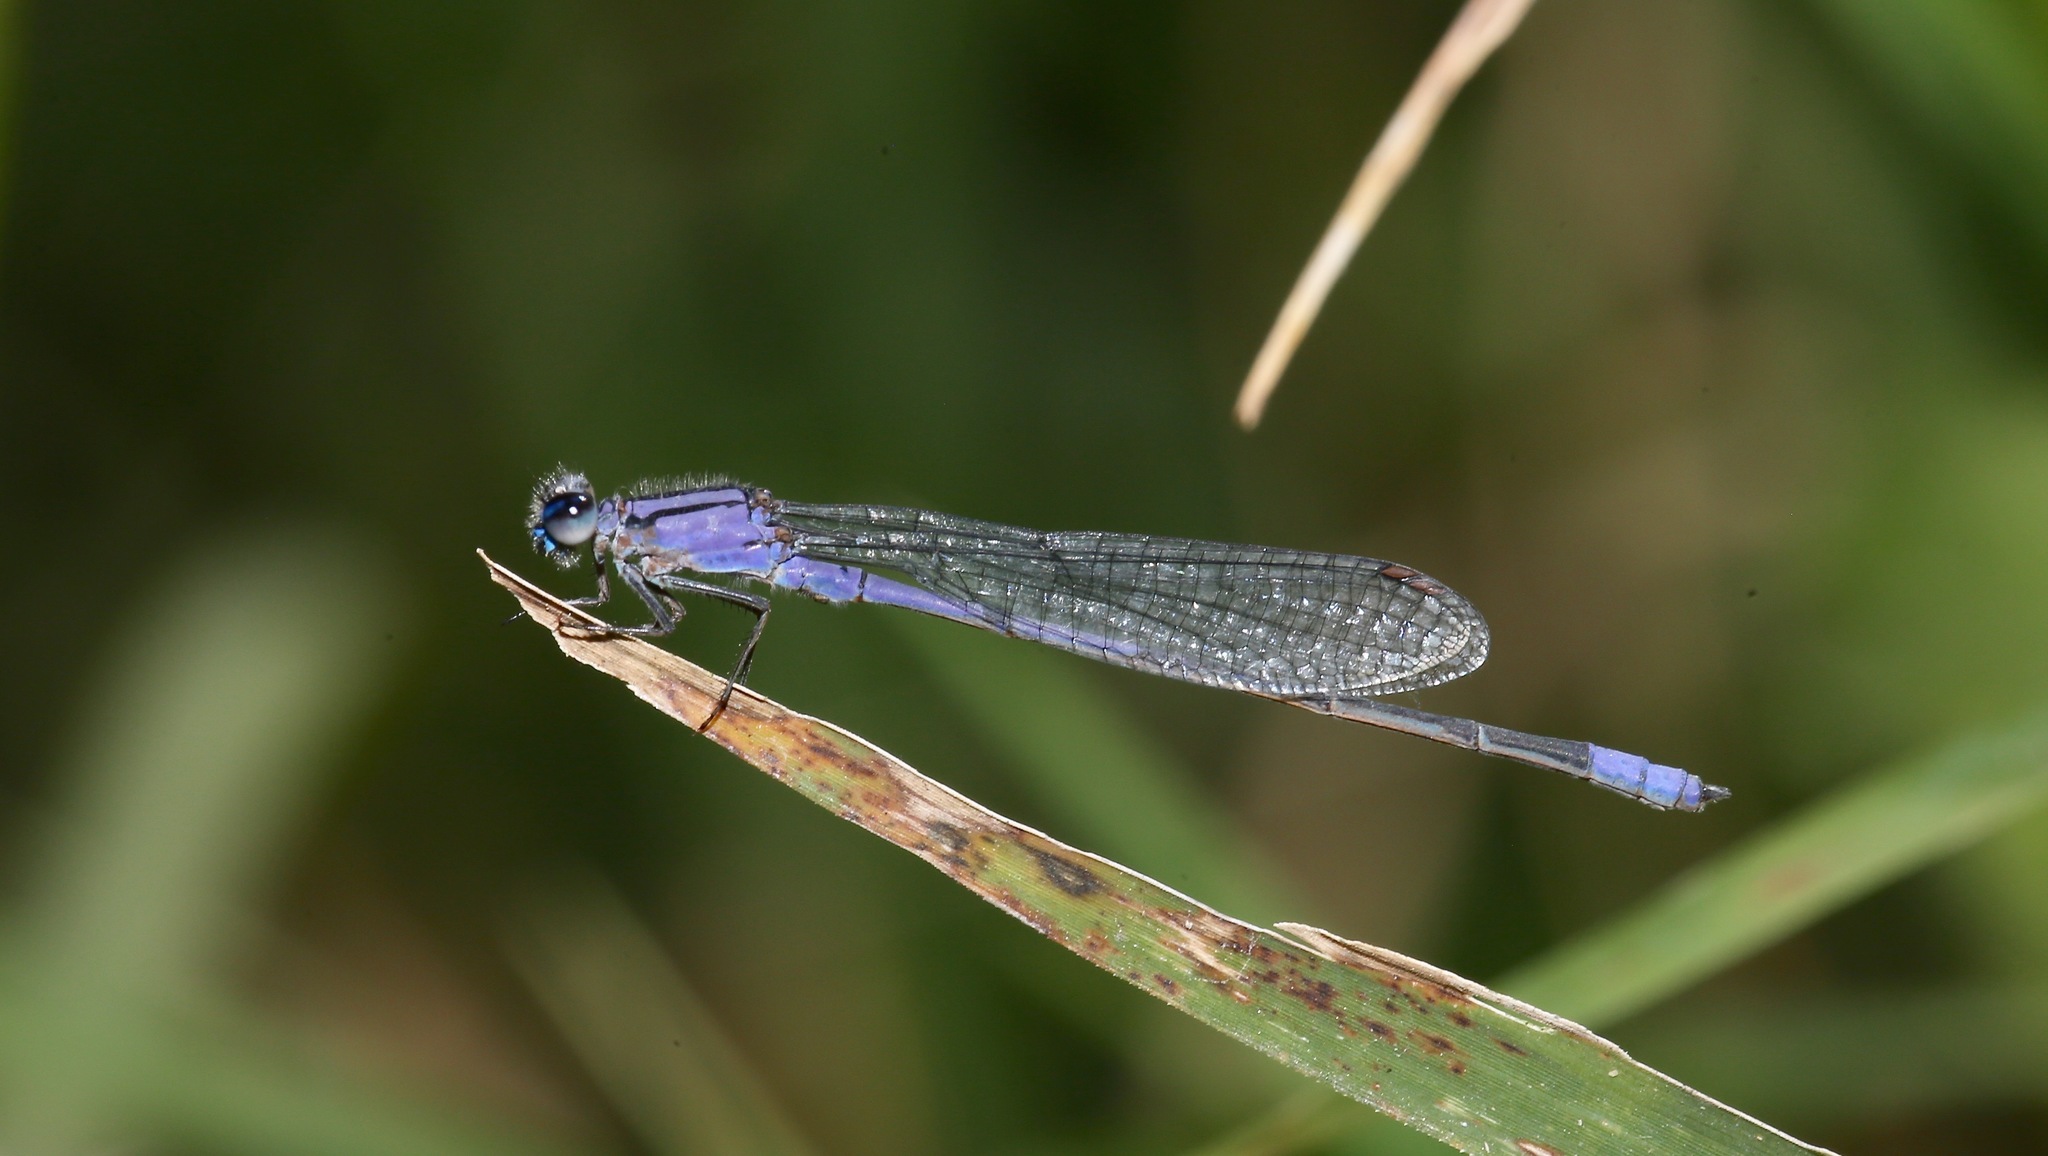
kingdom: Animalia
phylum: Arthropoda
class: Insecta
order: Odonata
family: Coenagrionidae
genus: Enallagma
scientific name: Enallagma semicirculare
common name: Claw-tipped bluet
